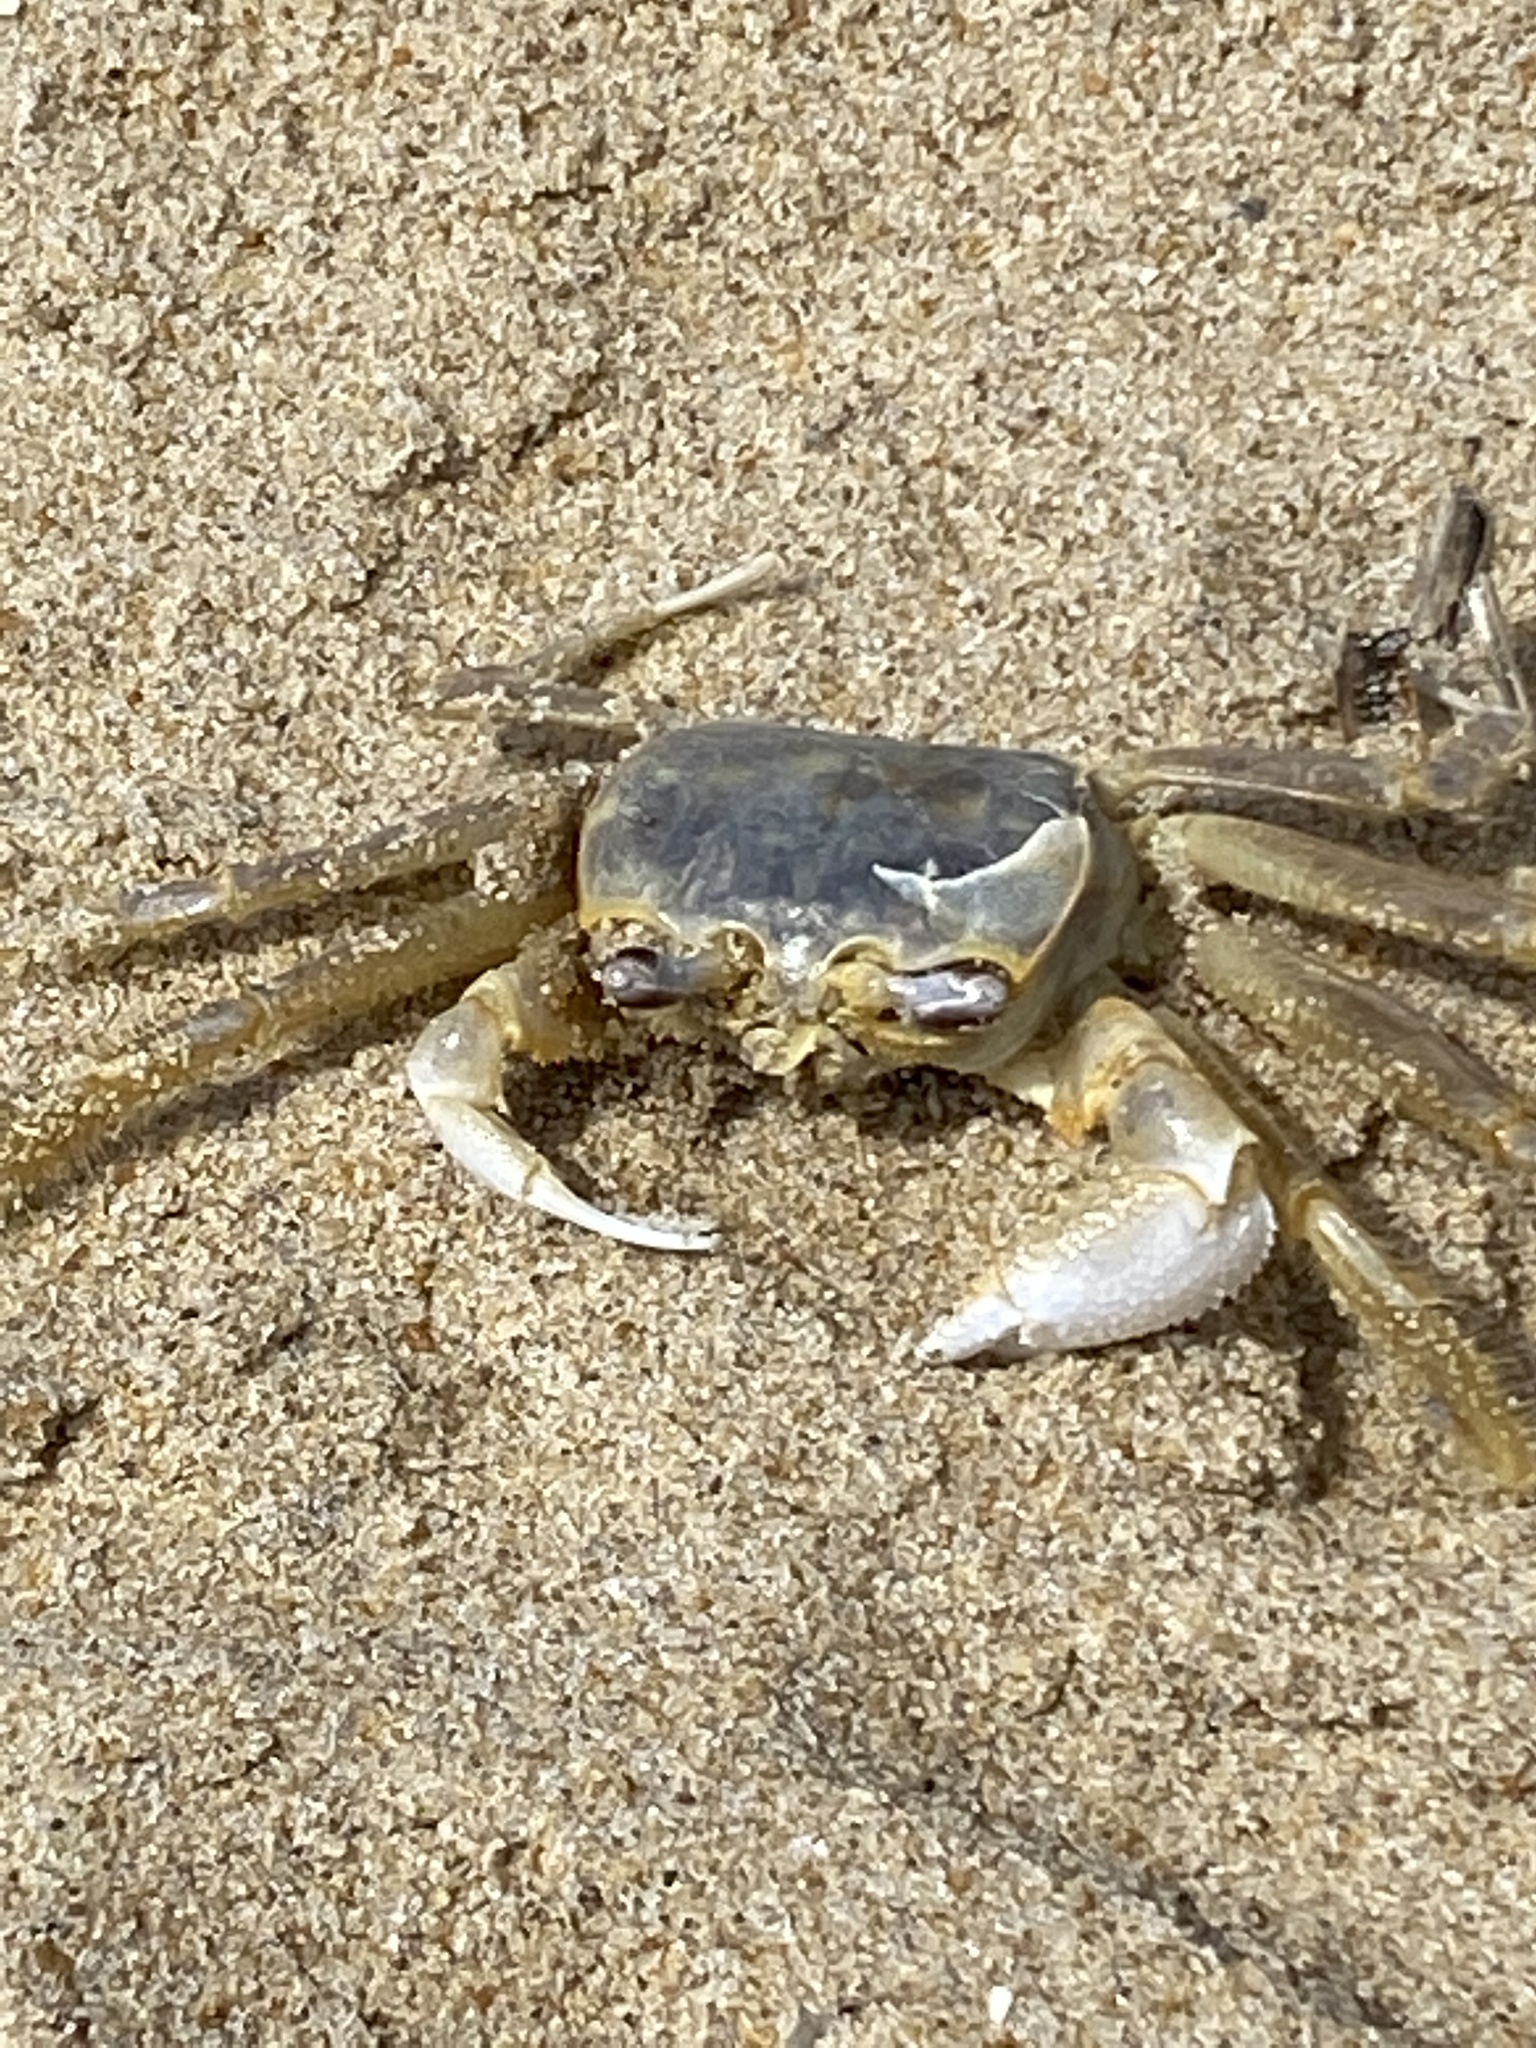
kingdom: Animalia
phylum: Arthropoda
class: Malacostraca
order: Decapoda
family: Ocypodidae
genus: Ocypode
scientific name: Ocypode quadrata
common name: Ghost crab
